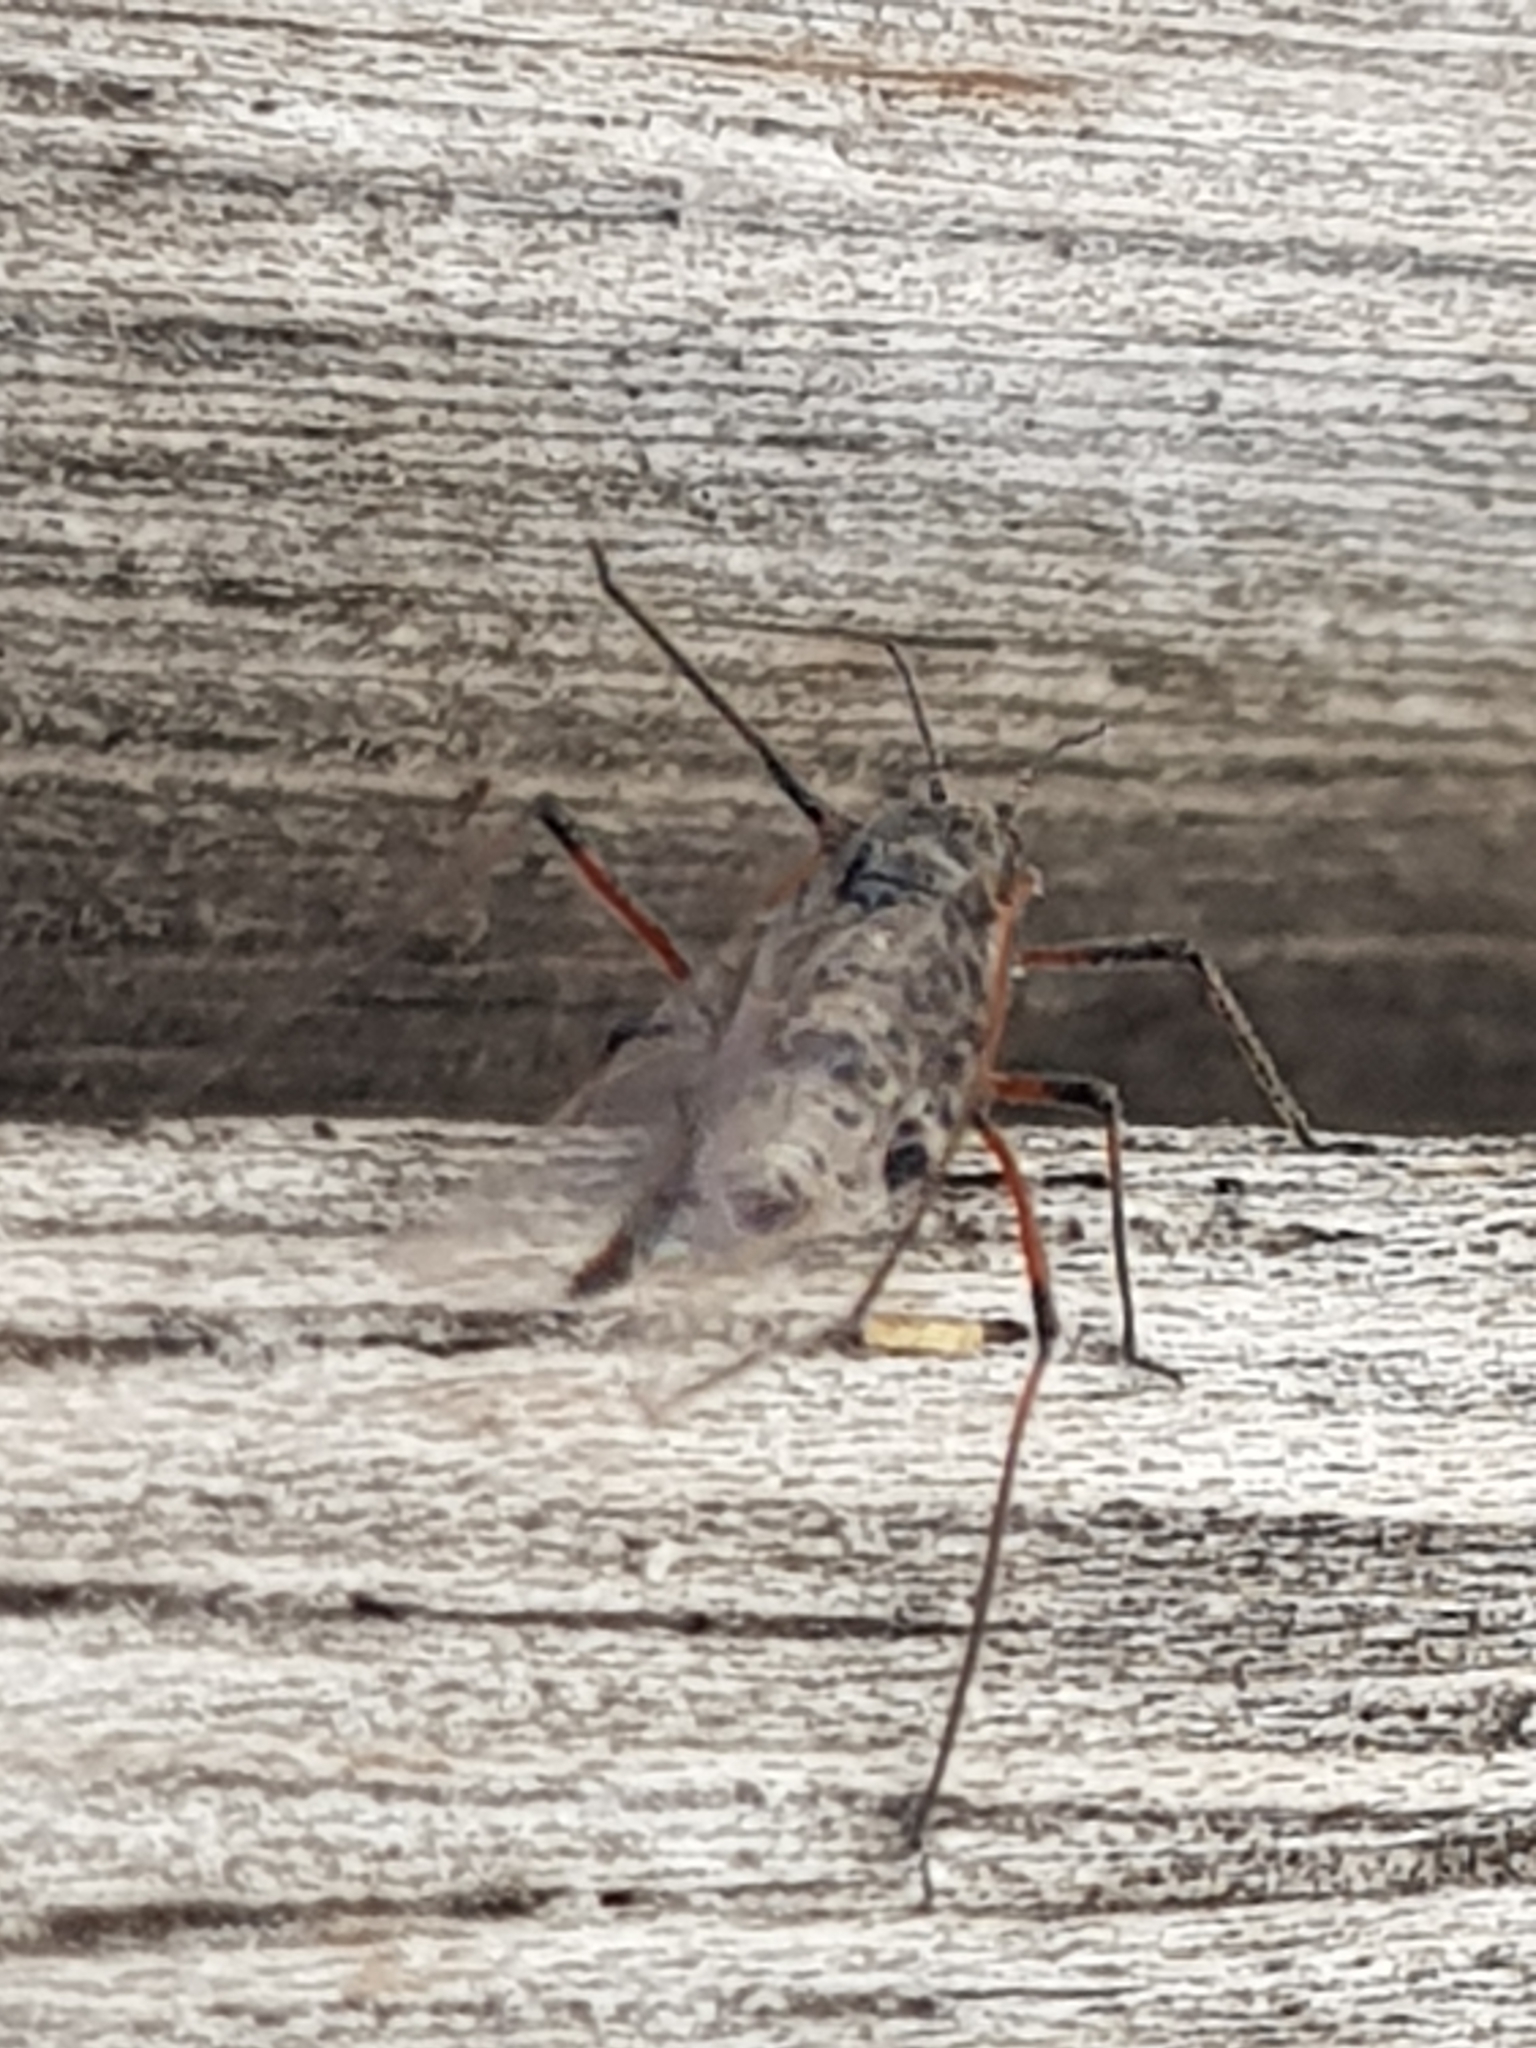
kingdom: Animalia
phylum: Arthropoda
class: Insecta
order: Hemiptera
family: Aphididae
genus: Tuberolachnus
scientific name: Tuberolachnus salignus
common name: Giant willow aphid
